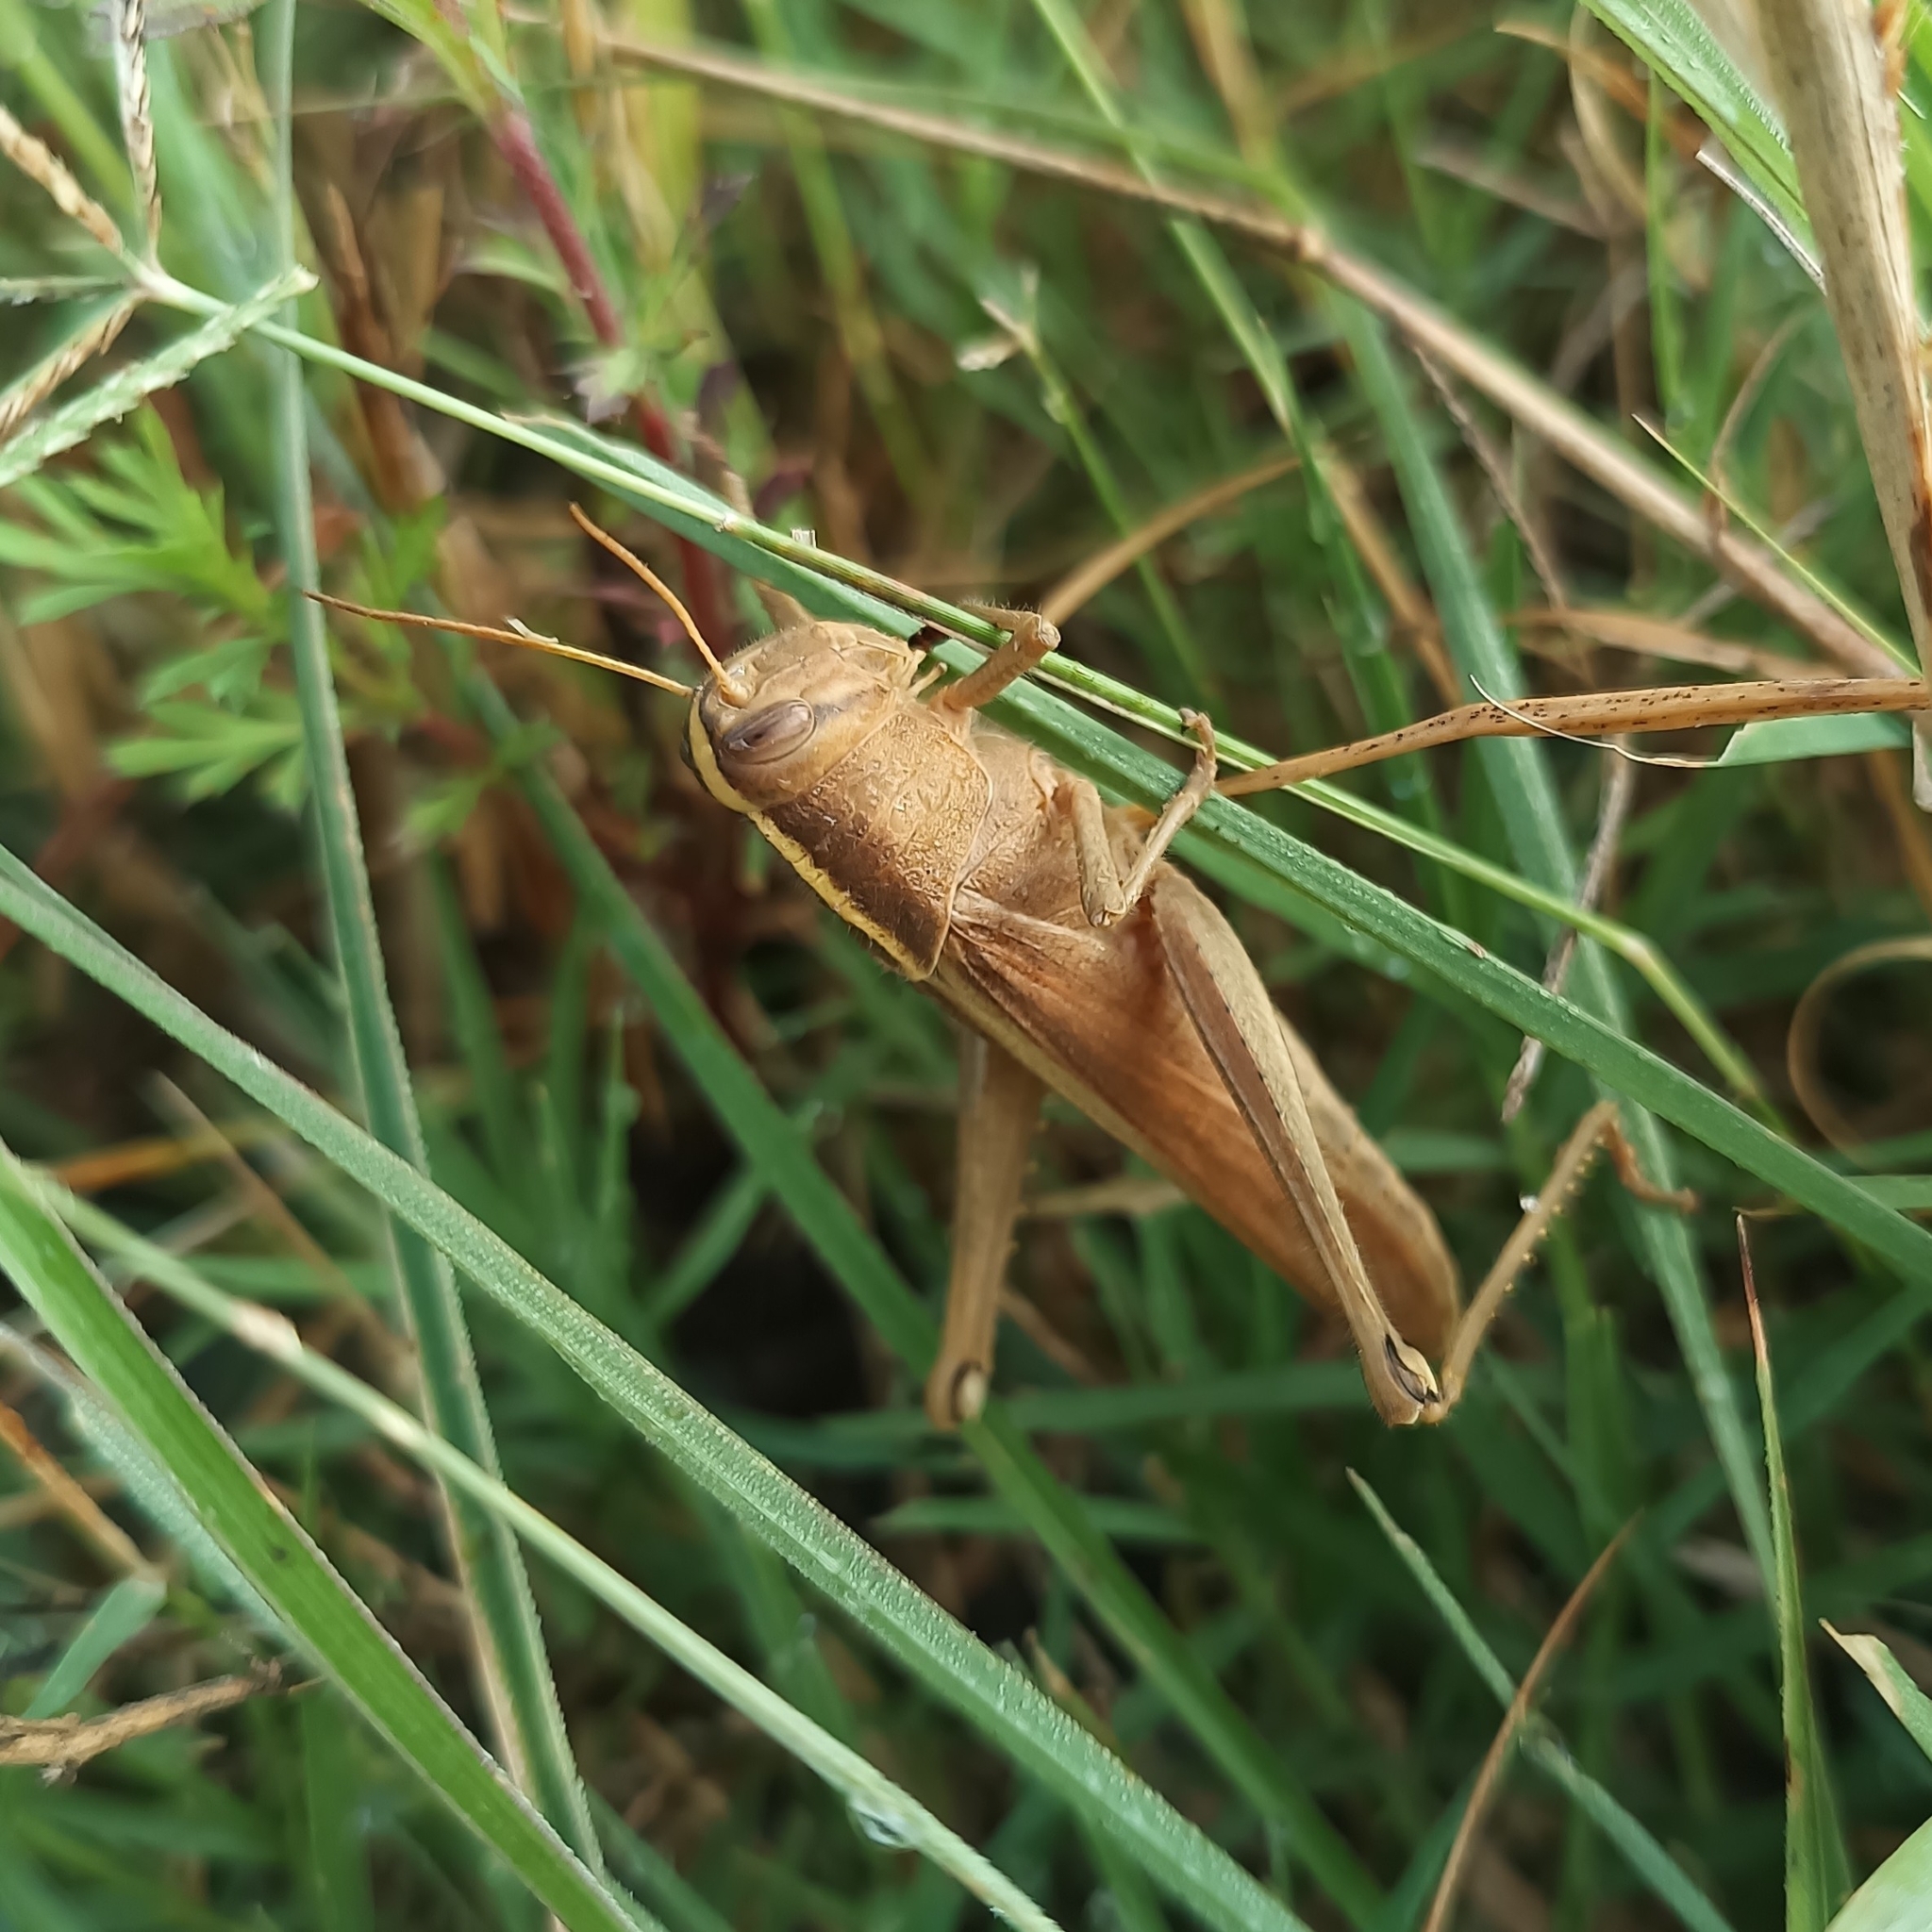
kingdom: Animalia
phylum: Arthropoda
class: Insecta
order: Orthoptera
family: Acrididae
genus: Schistocerca
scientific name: Schistocerca cohni
